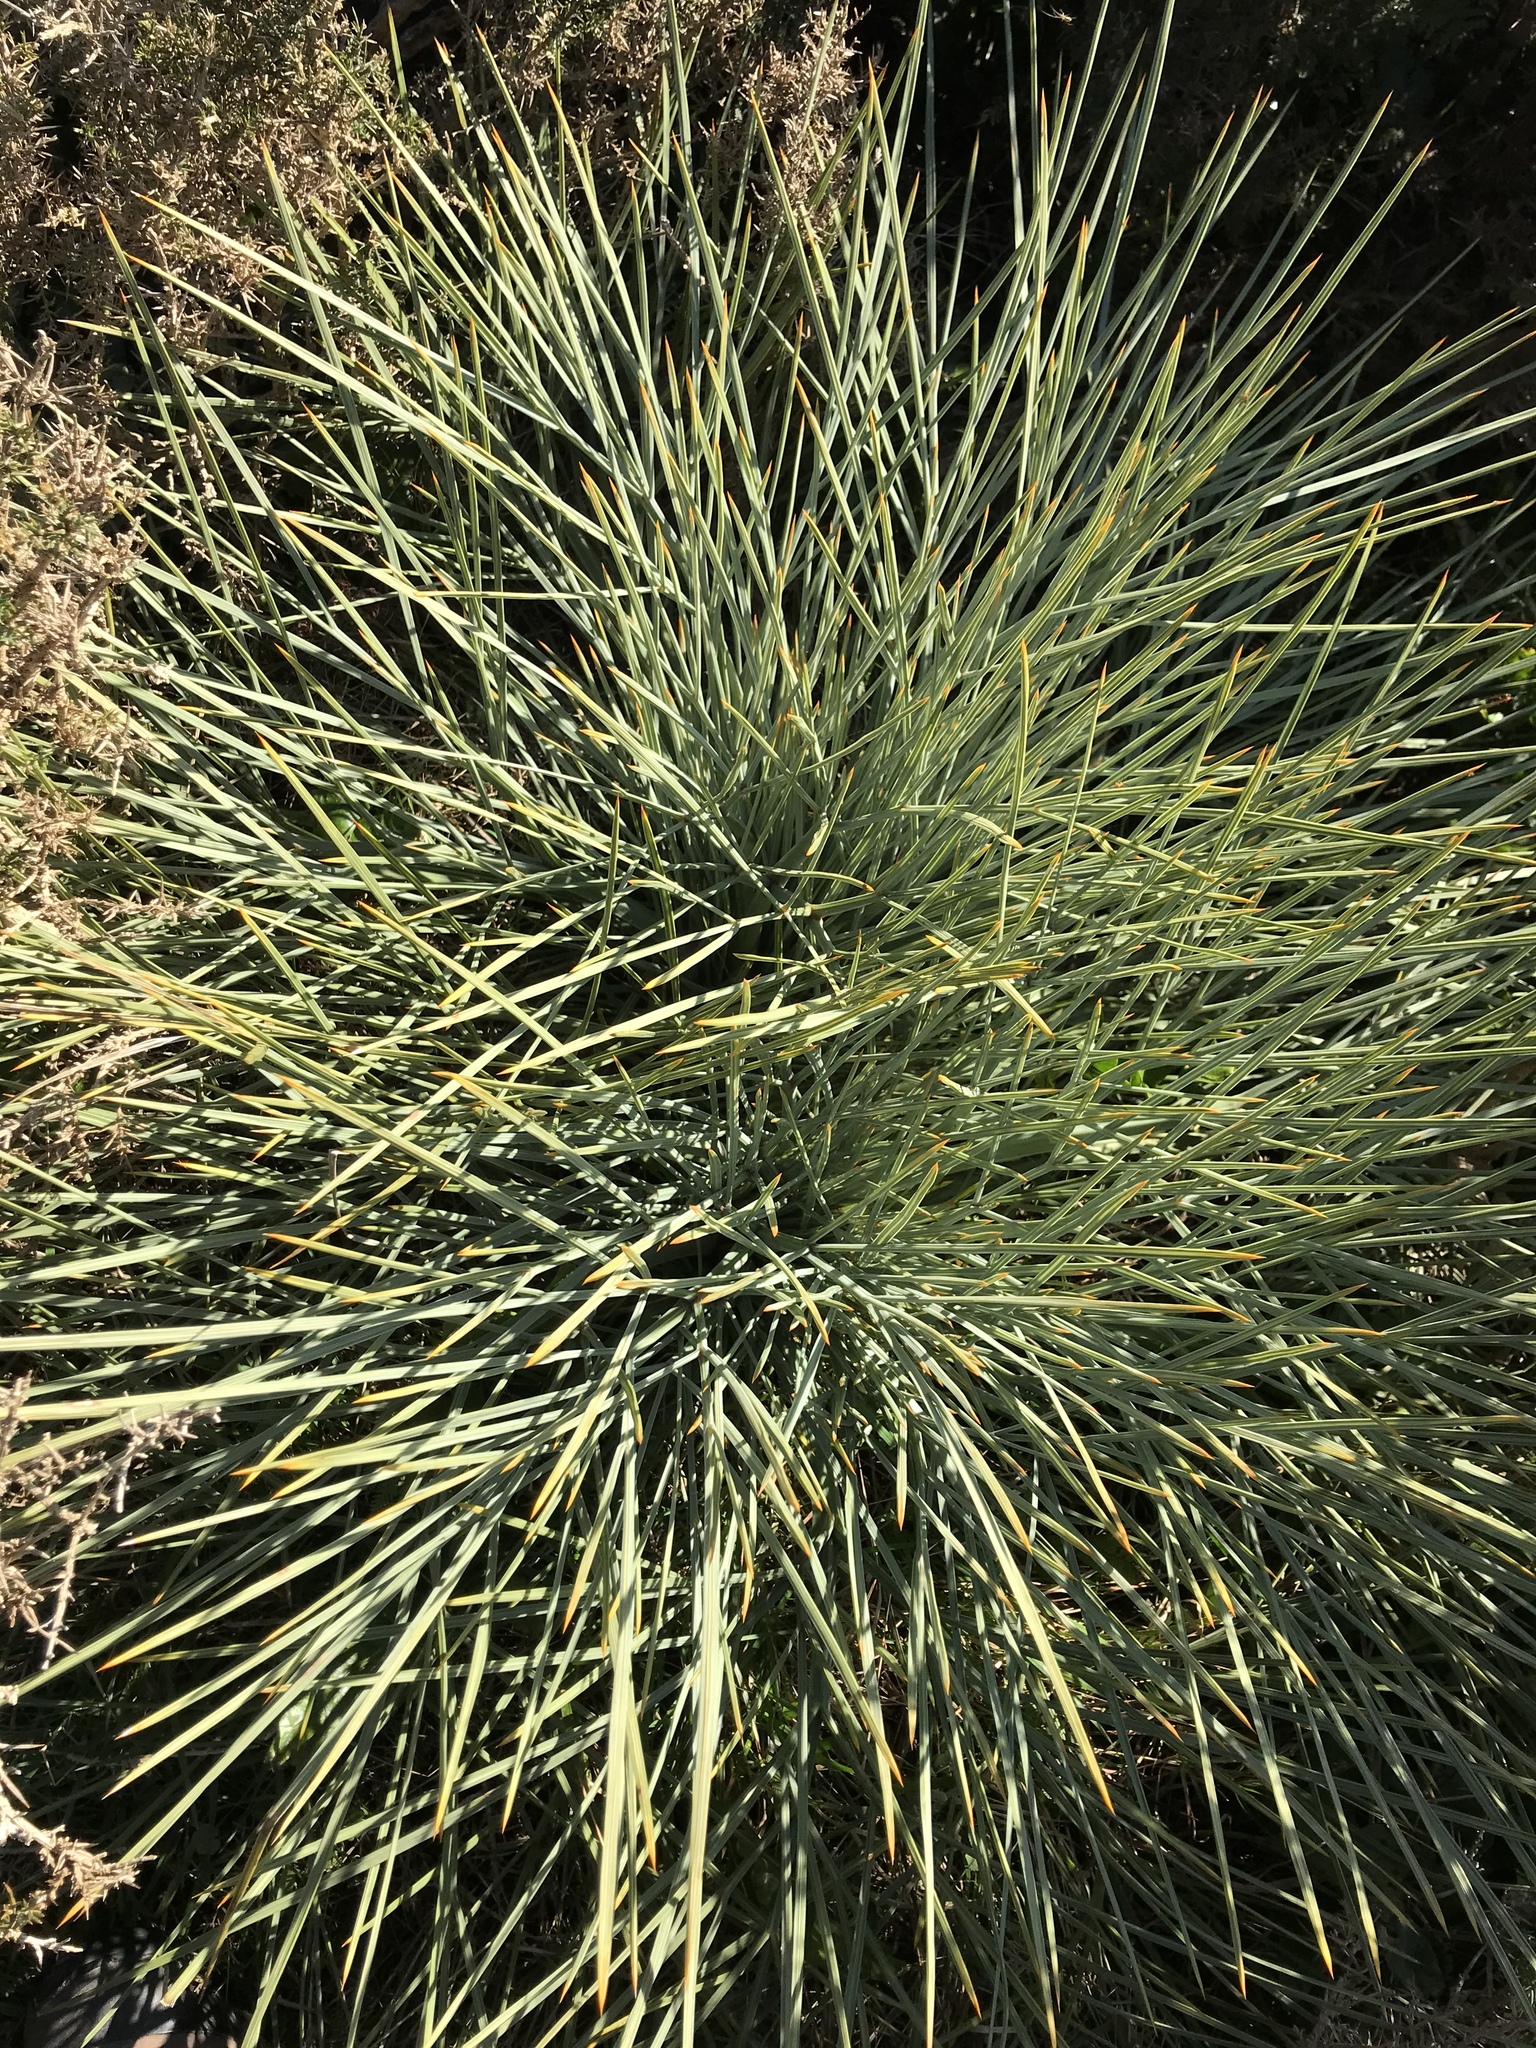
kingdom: Plantae
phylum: Tracheophyta
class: Magnoliopsida
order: Apiales
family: Apiaceae
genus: Aciphylla
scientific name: Aciphylla squarrosa
